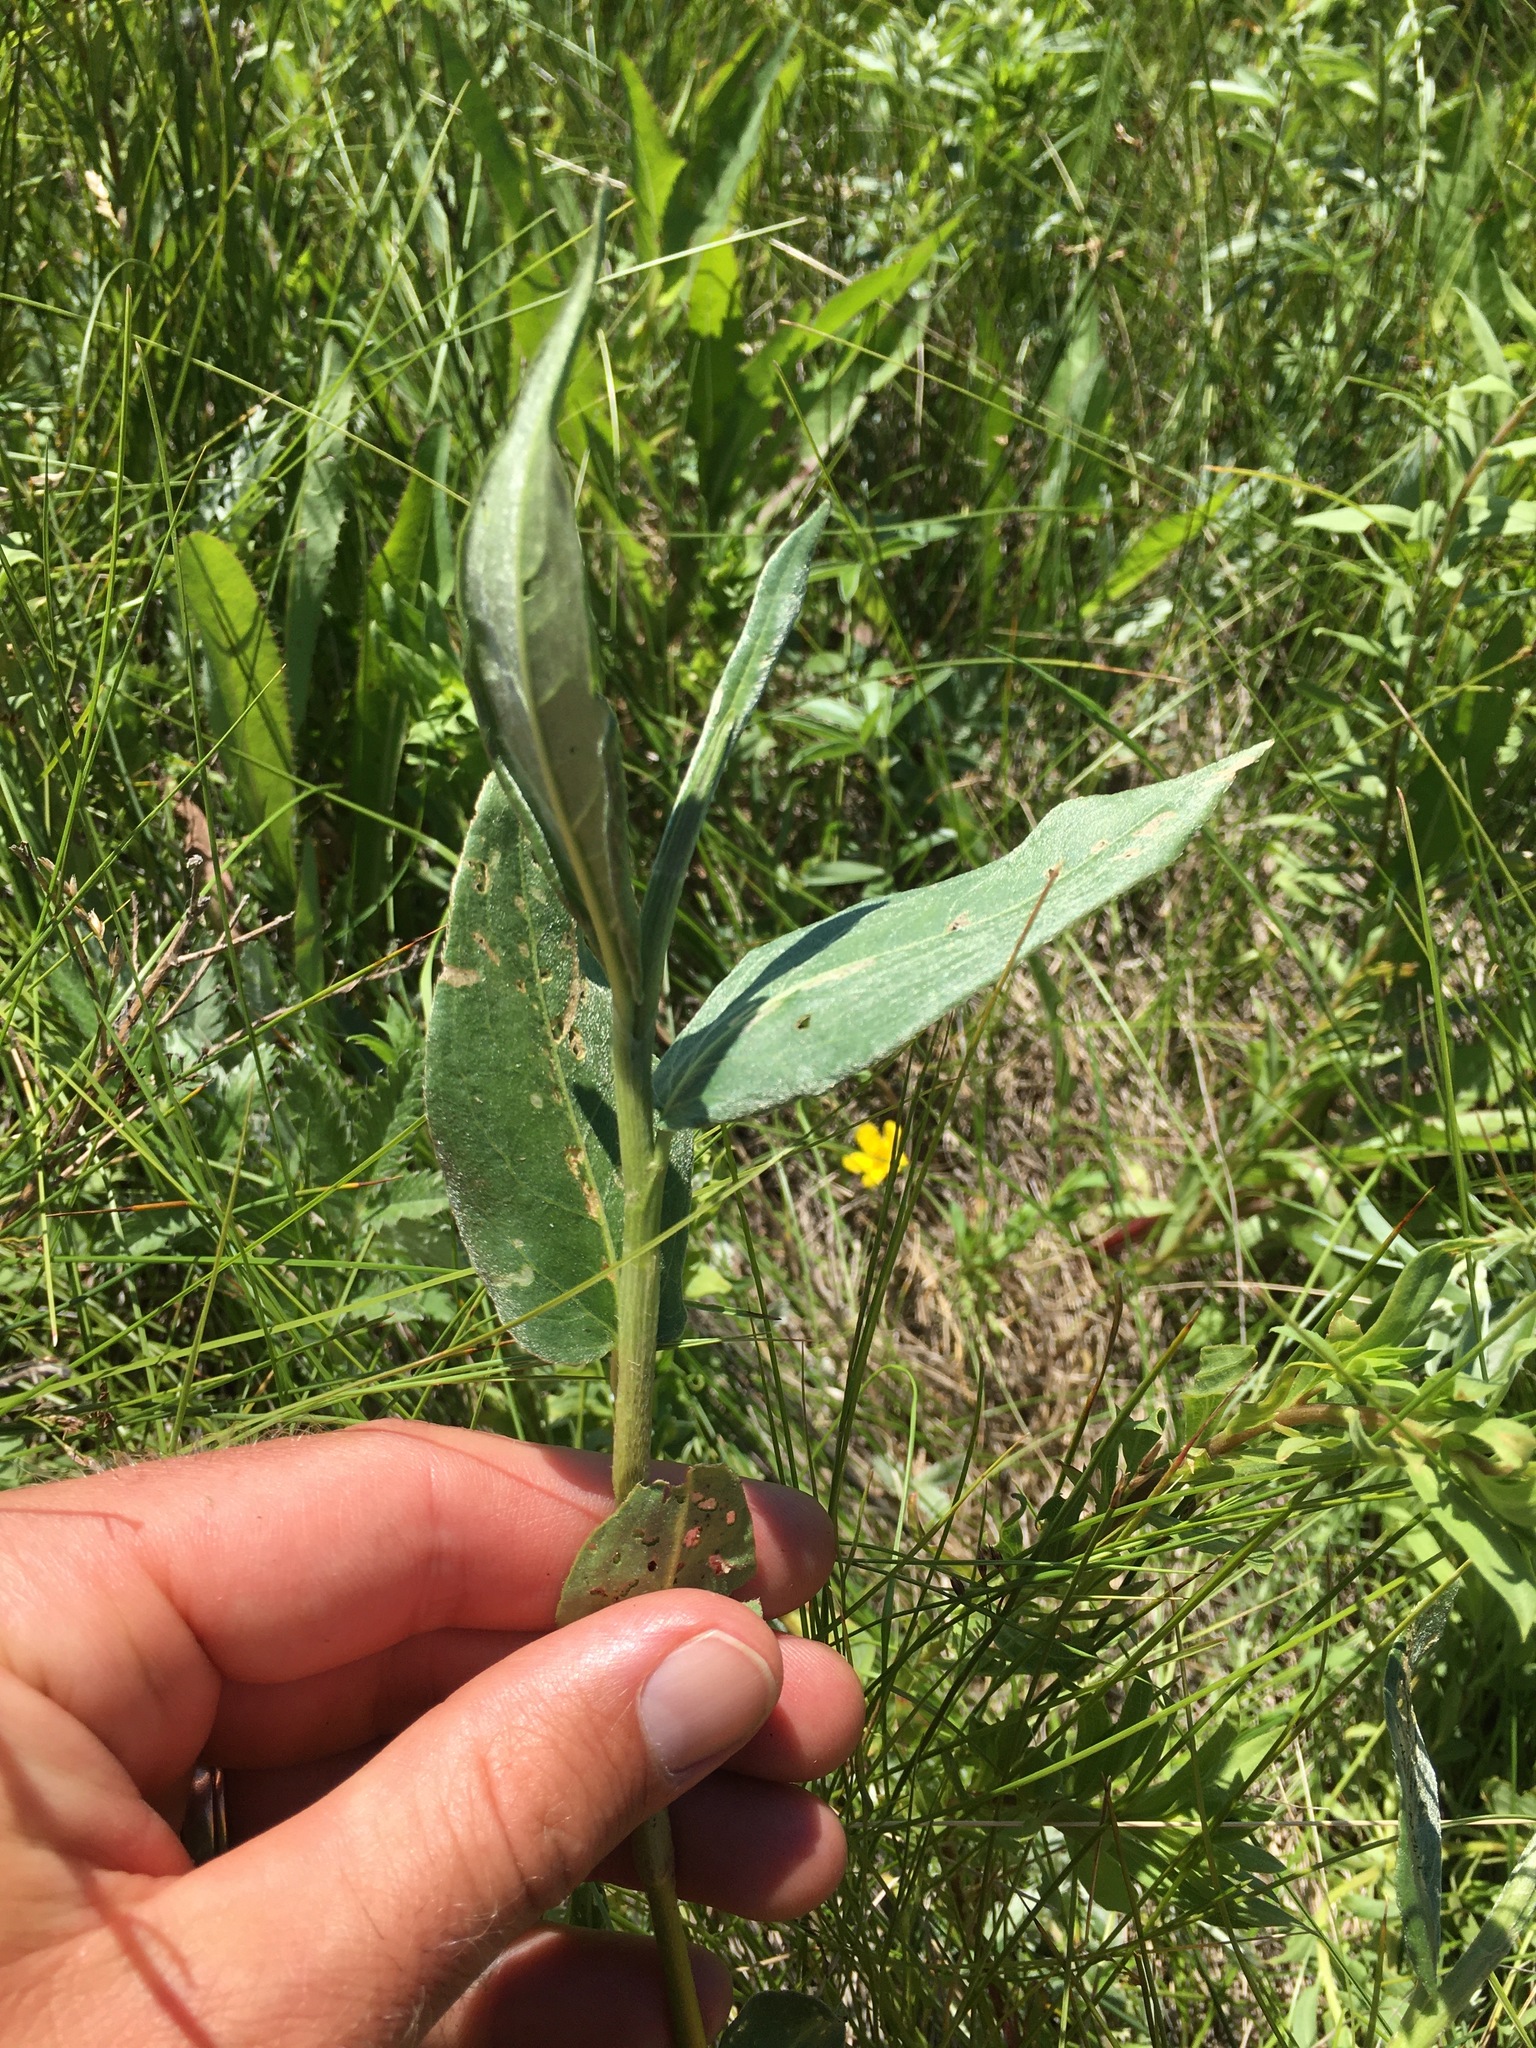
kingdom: Plantae
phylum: Tracheophyta
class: Magnoliopsida
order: Caryophyllales
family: Polygonaceae
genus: Persicaria
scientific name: Persicaria amphibia
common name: Amphibious bistort
